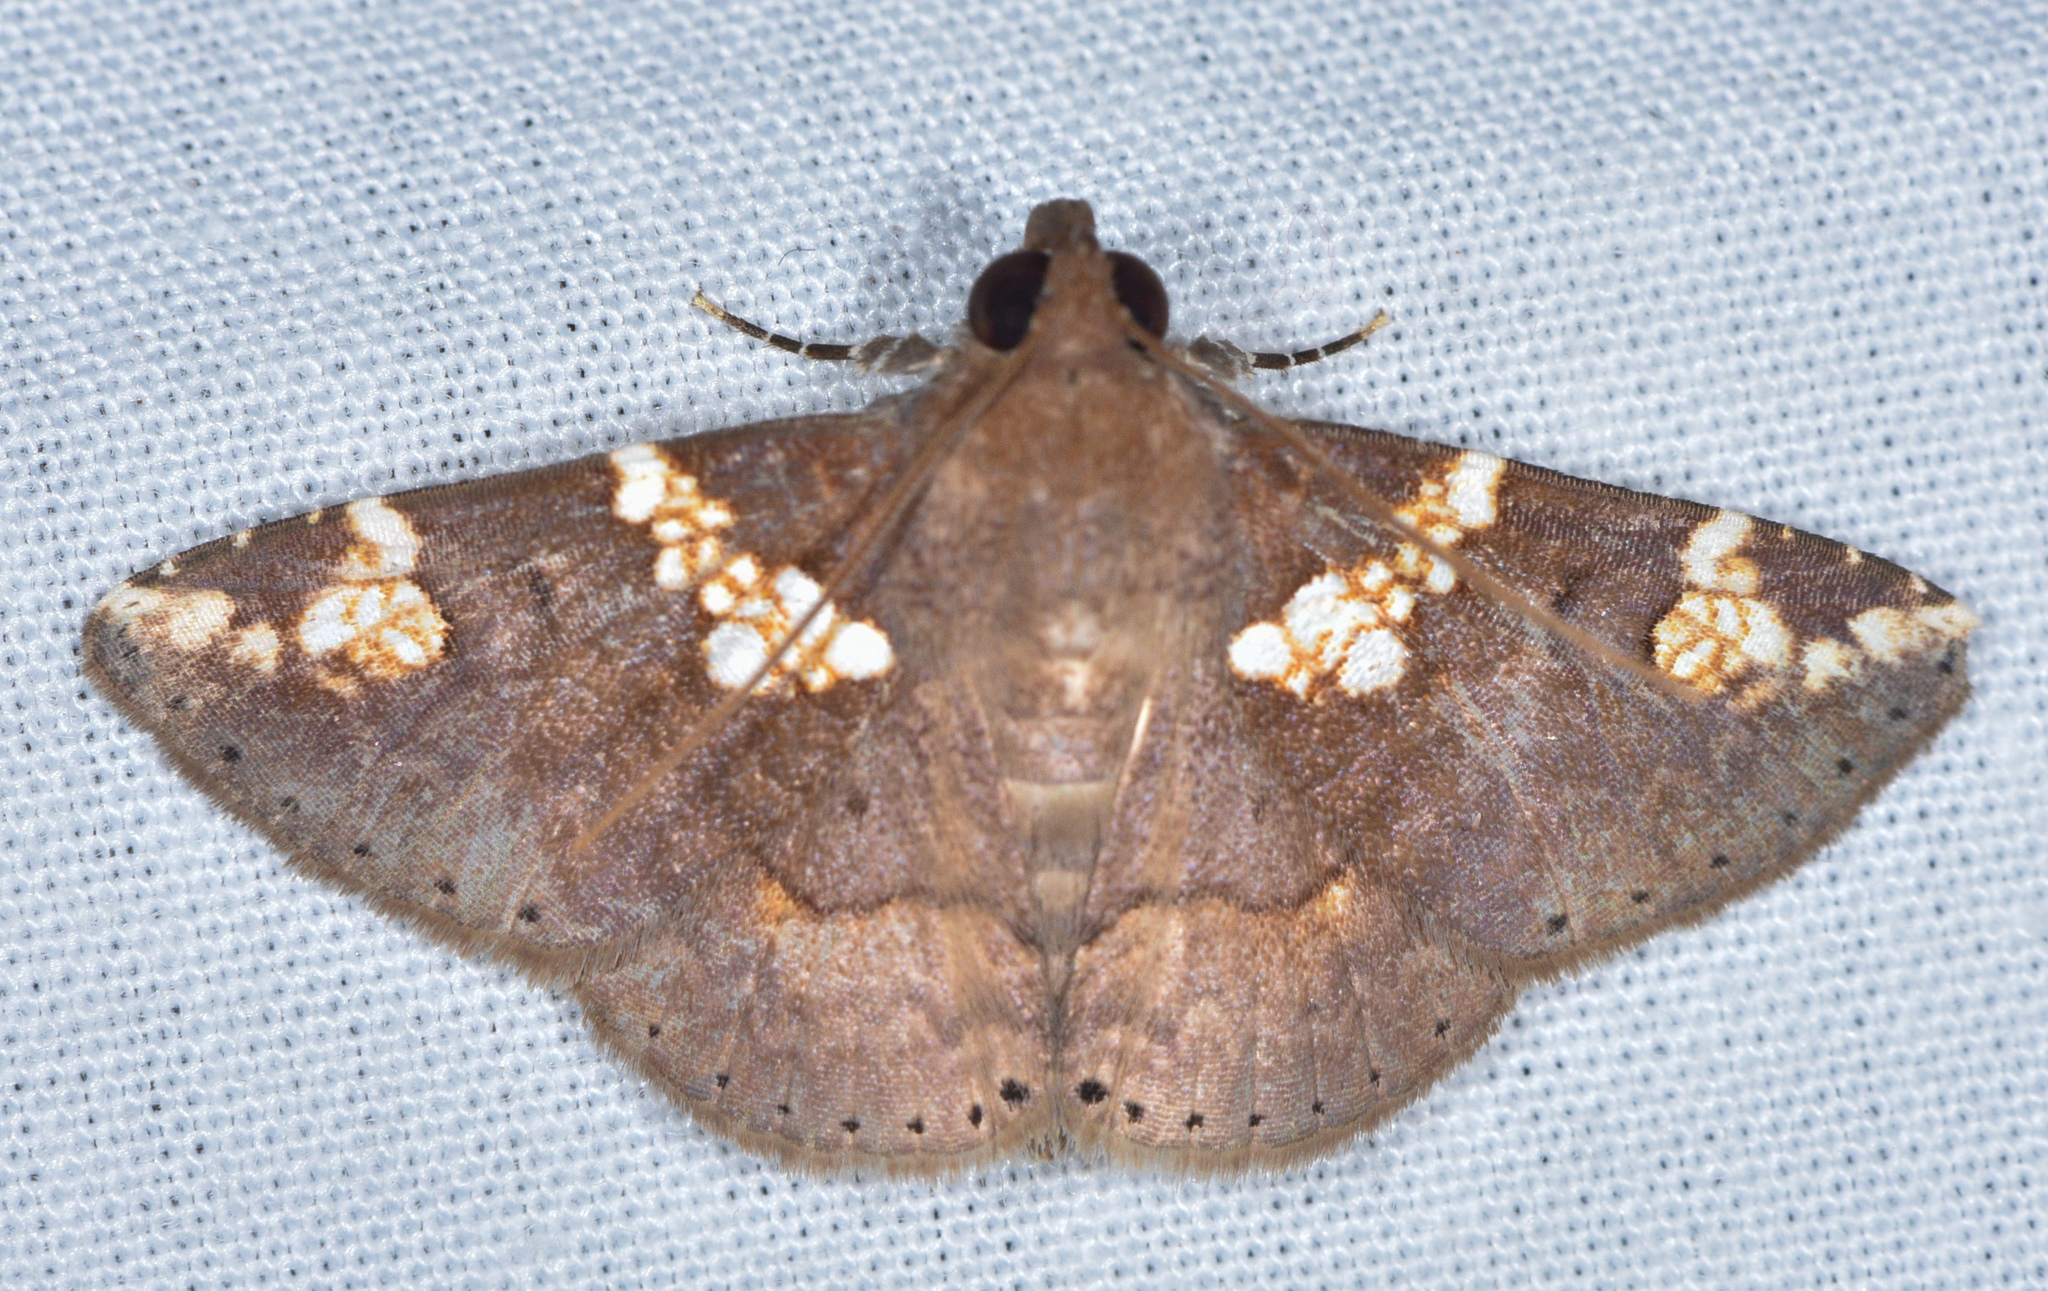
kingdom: Animalia
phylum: Arthropoda
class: Insecta
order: Lepidoptera
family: Erebidae
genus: Antiblemma
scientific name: Antiblemma perornata
